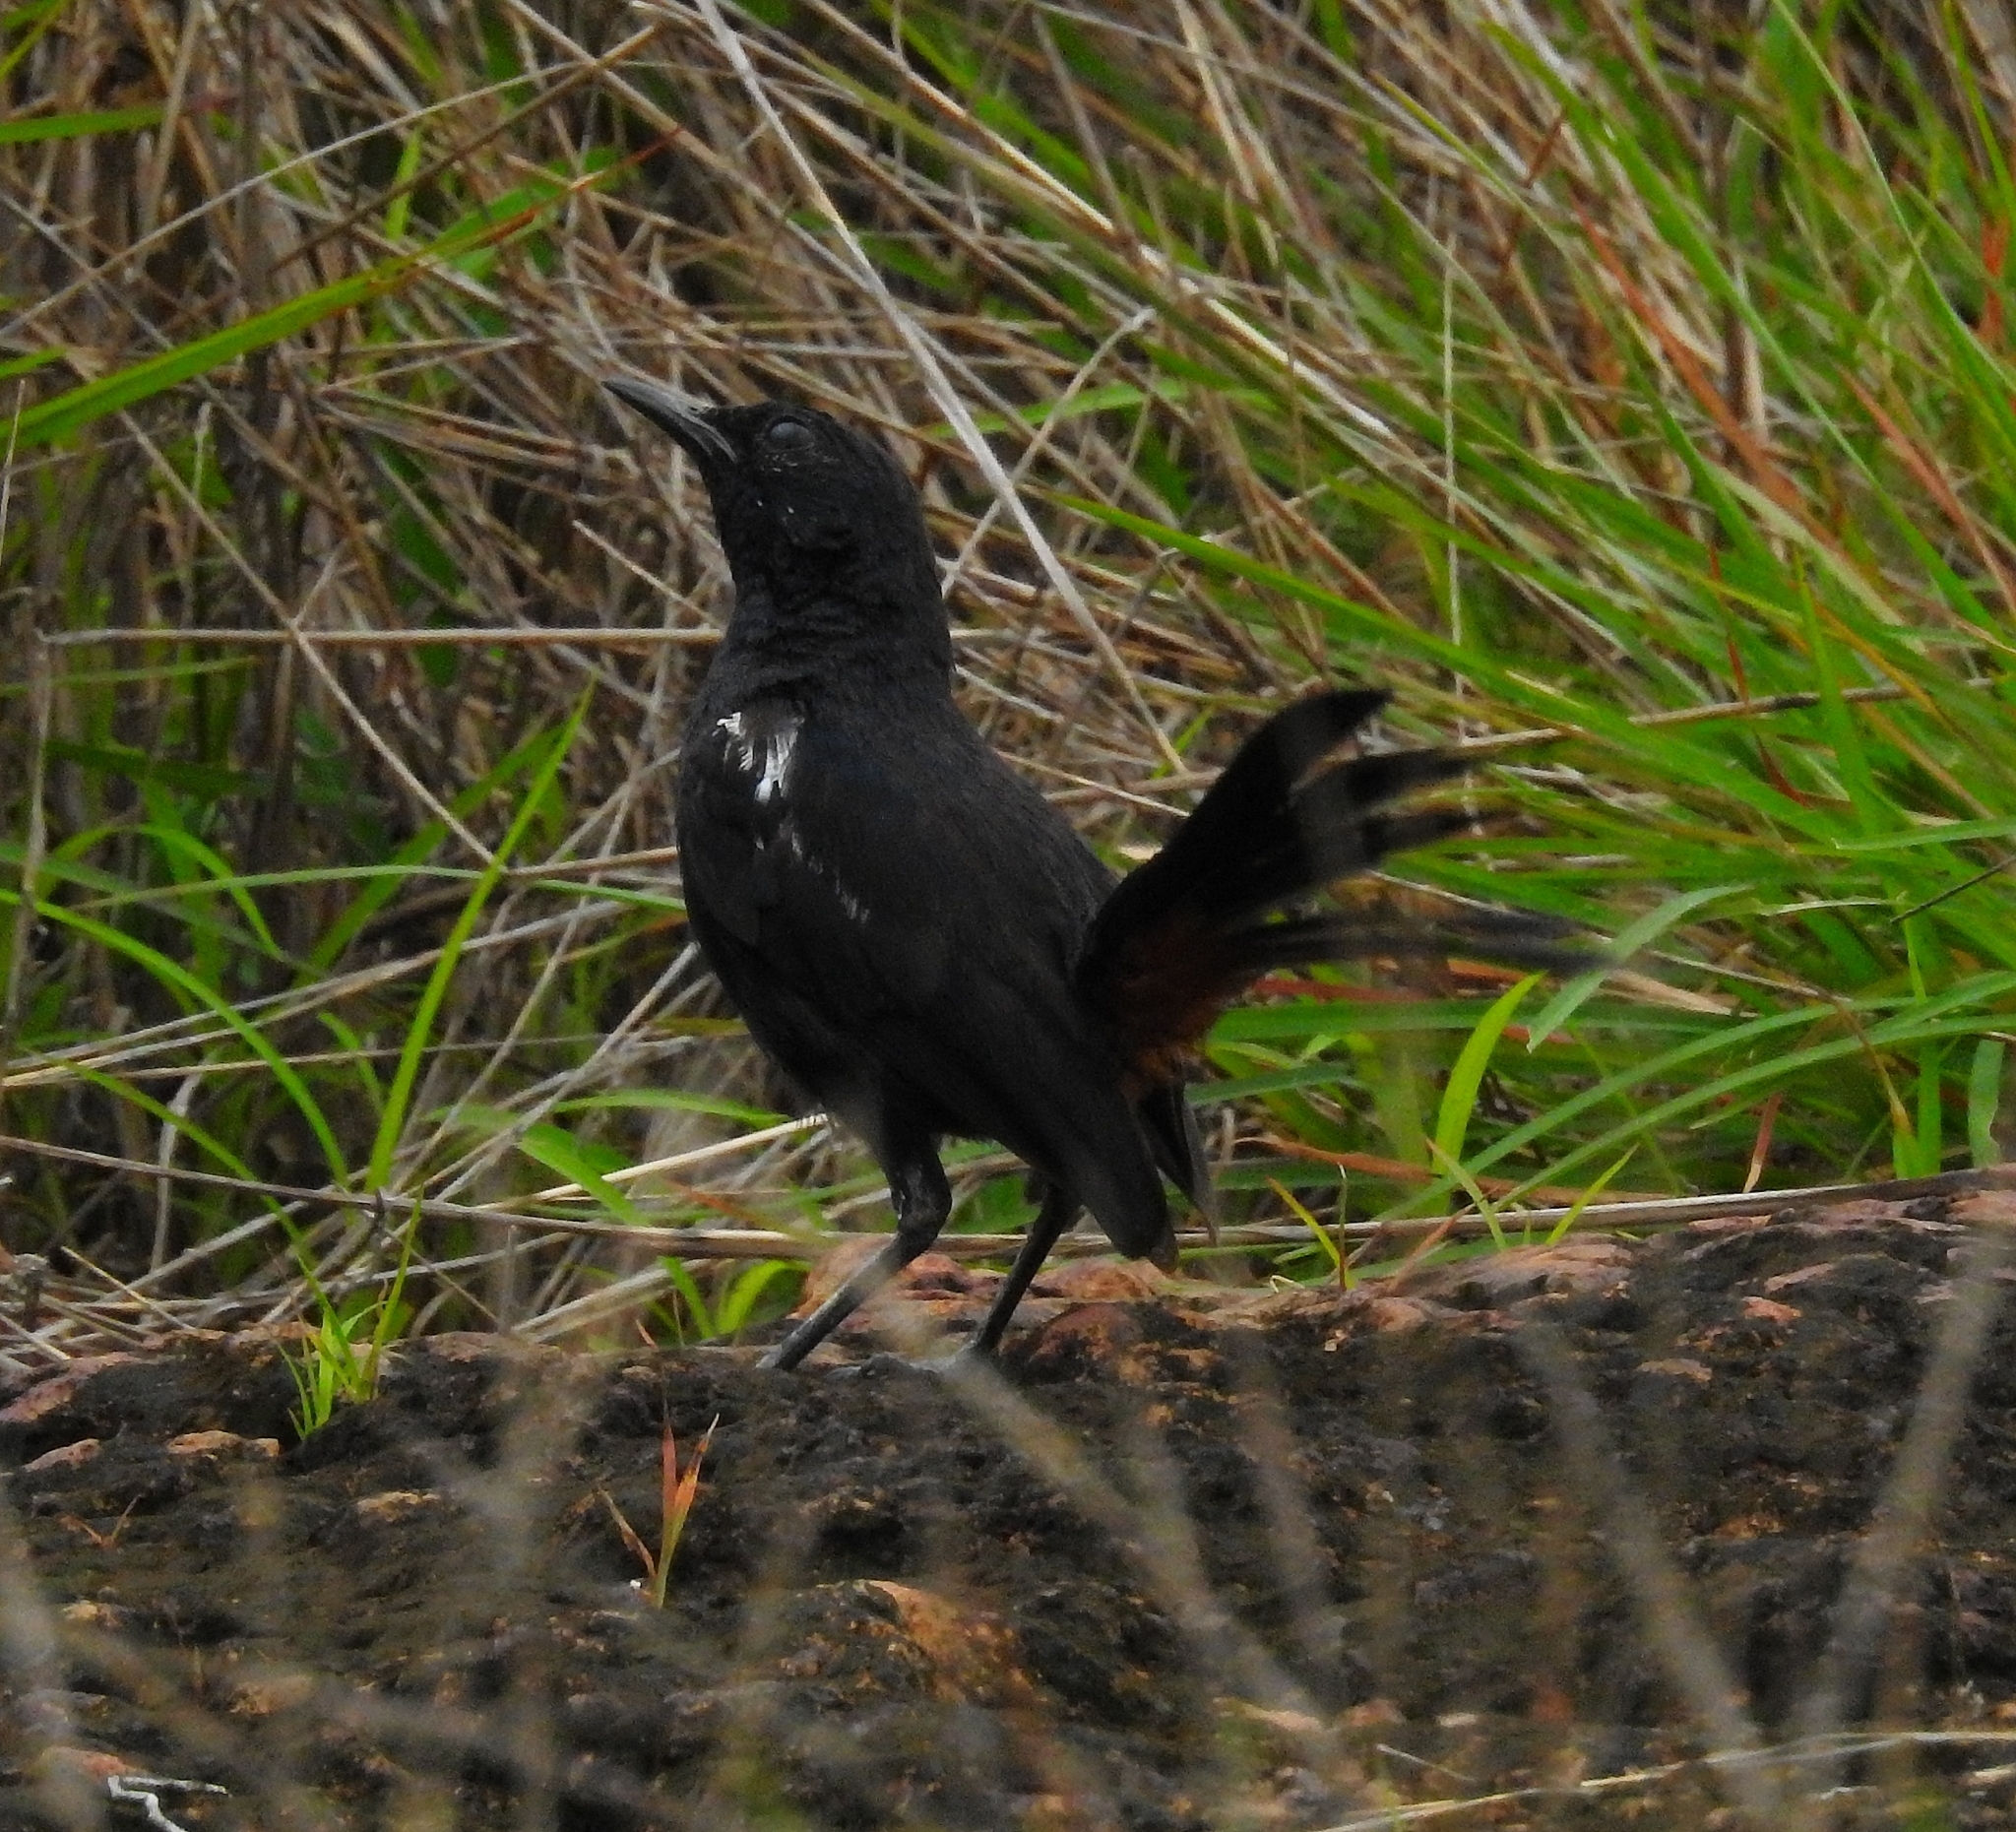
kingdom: Animalia
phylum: Chordata
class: Aves
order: Passeriformes
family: Muscicapidae
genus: Saxicoloides
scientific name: Saxicoloides fulicatus
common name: Indian robin
